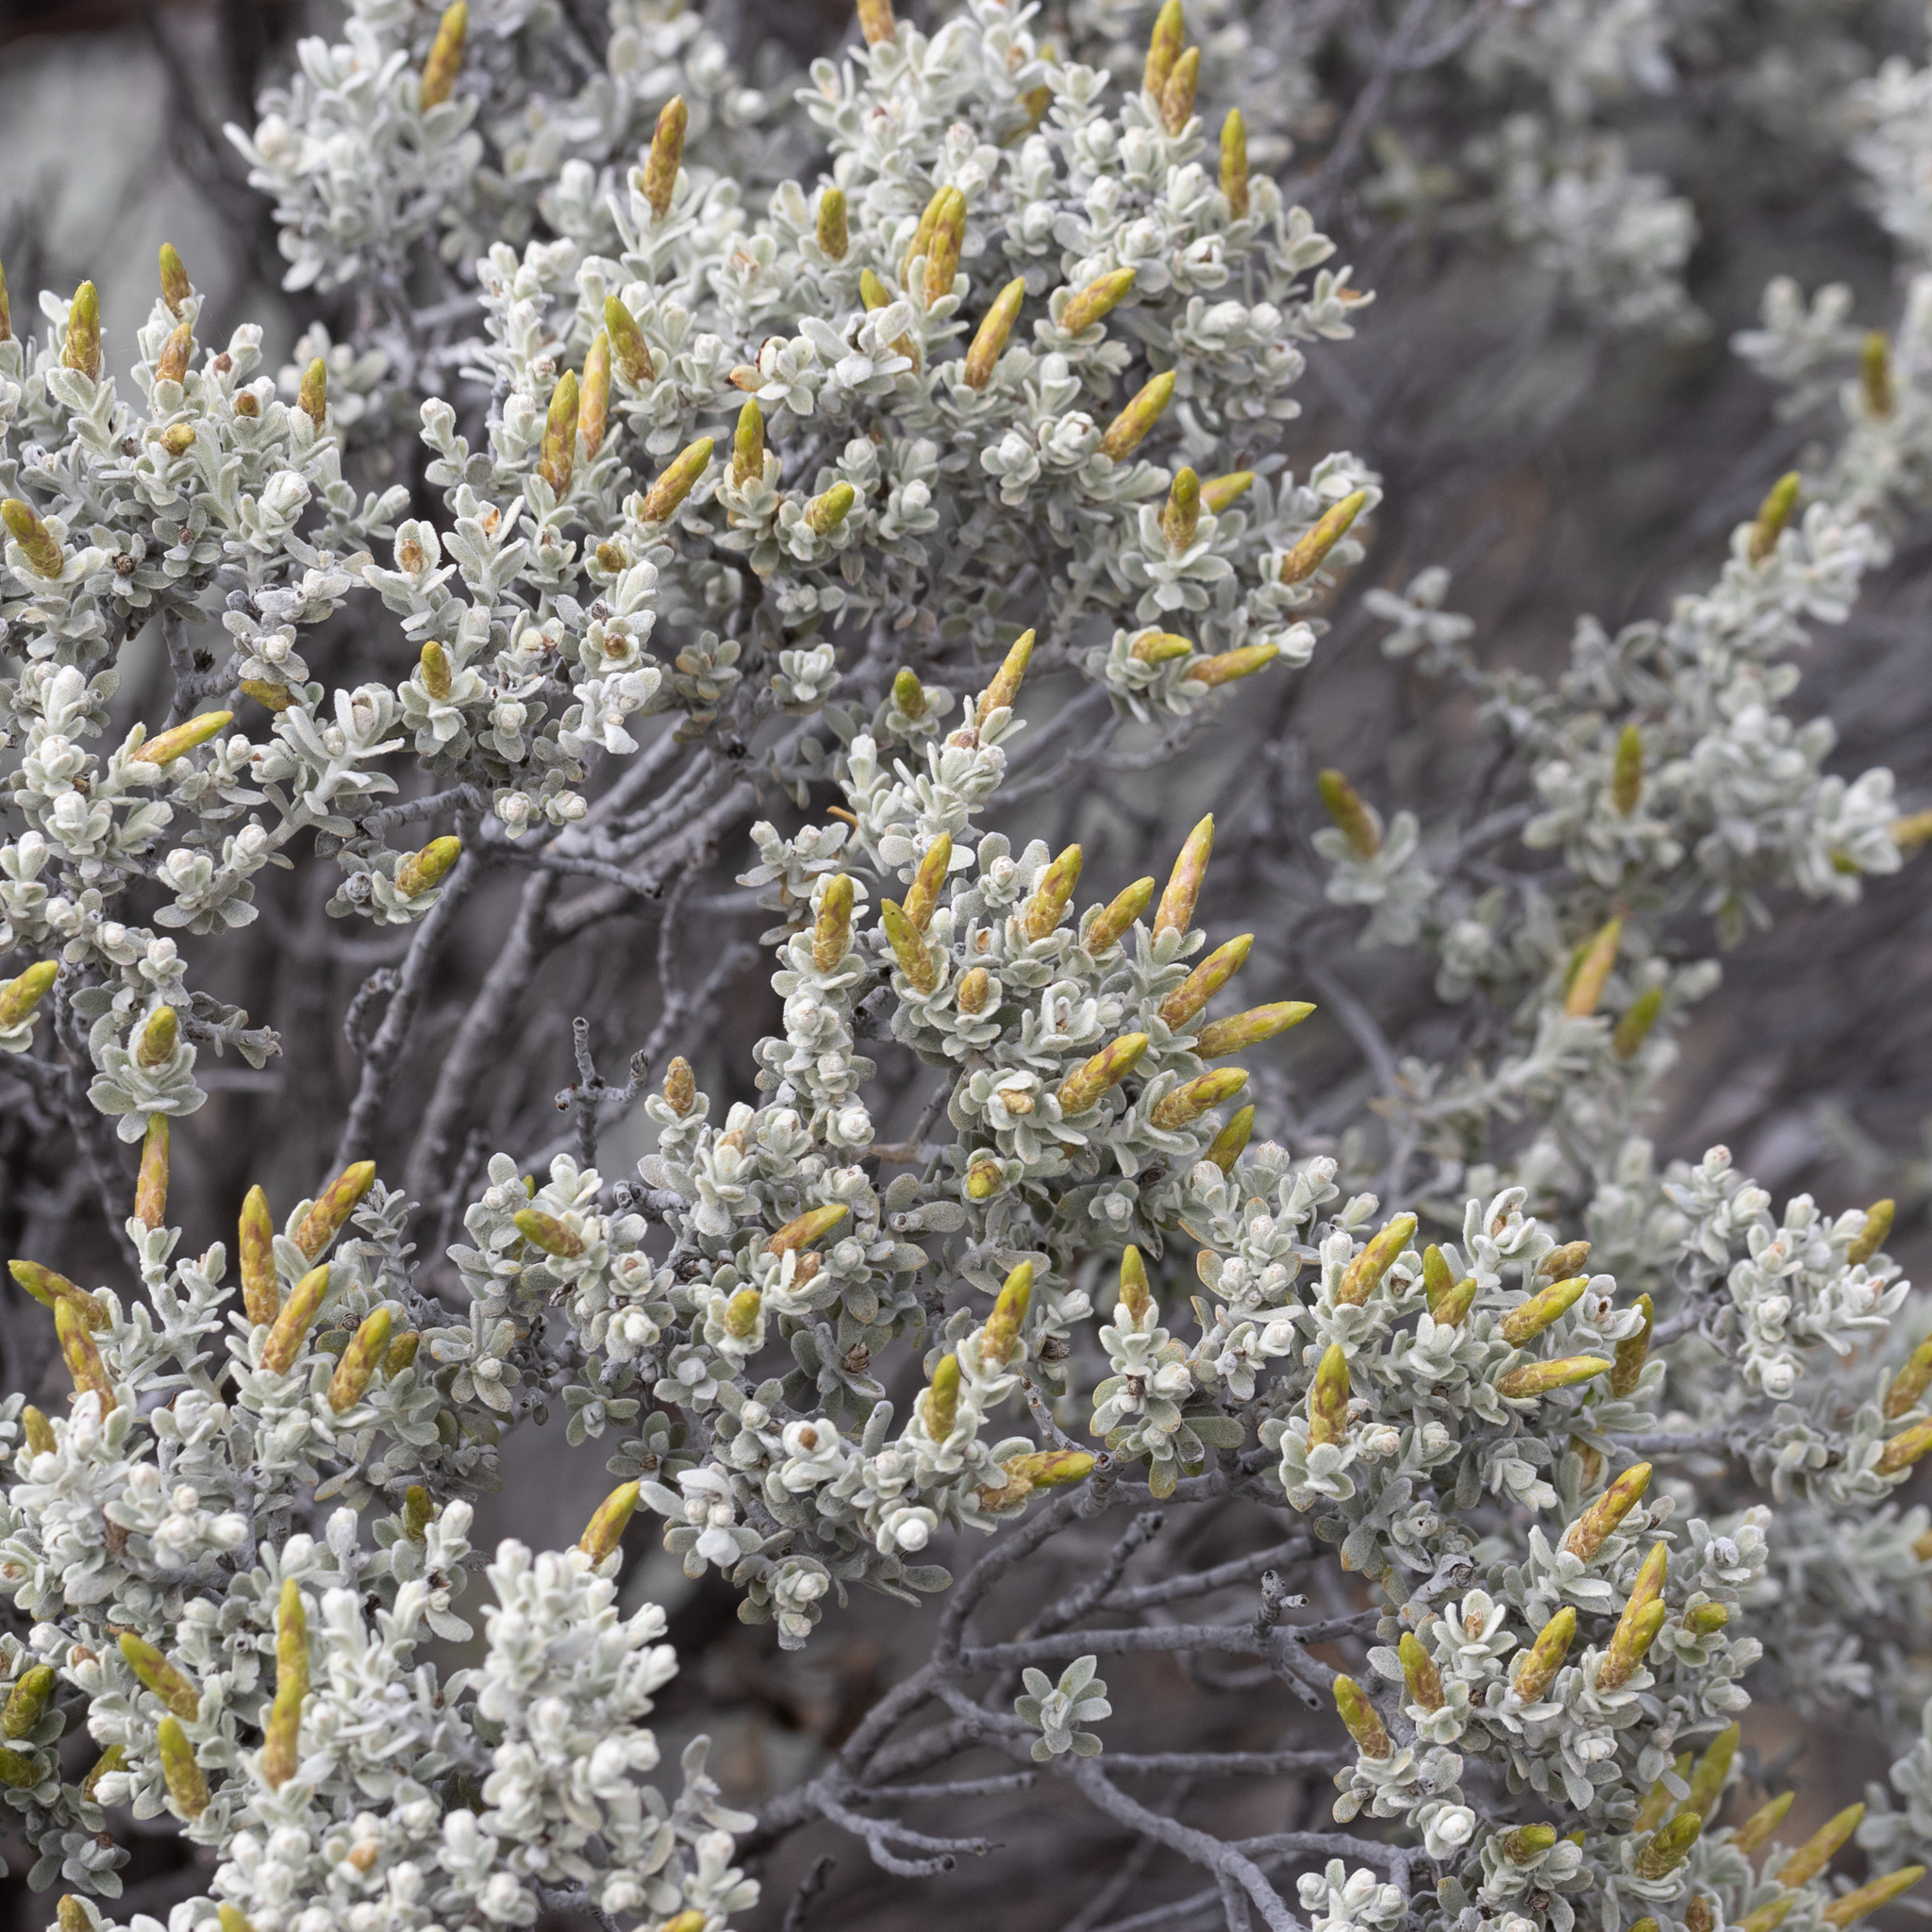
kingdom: Plantae
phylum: Tracheophyta
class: Magnoliopsida
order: Asterales
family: Asteraceae
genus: Cratystylis
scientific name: Cratystylis conocephala
